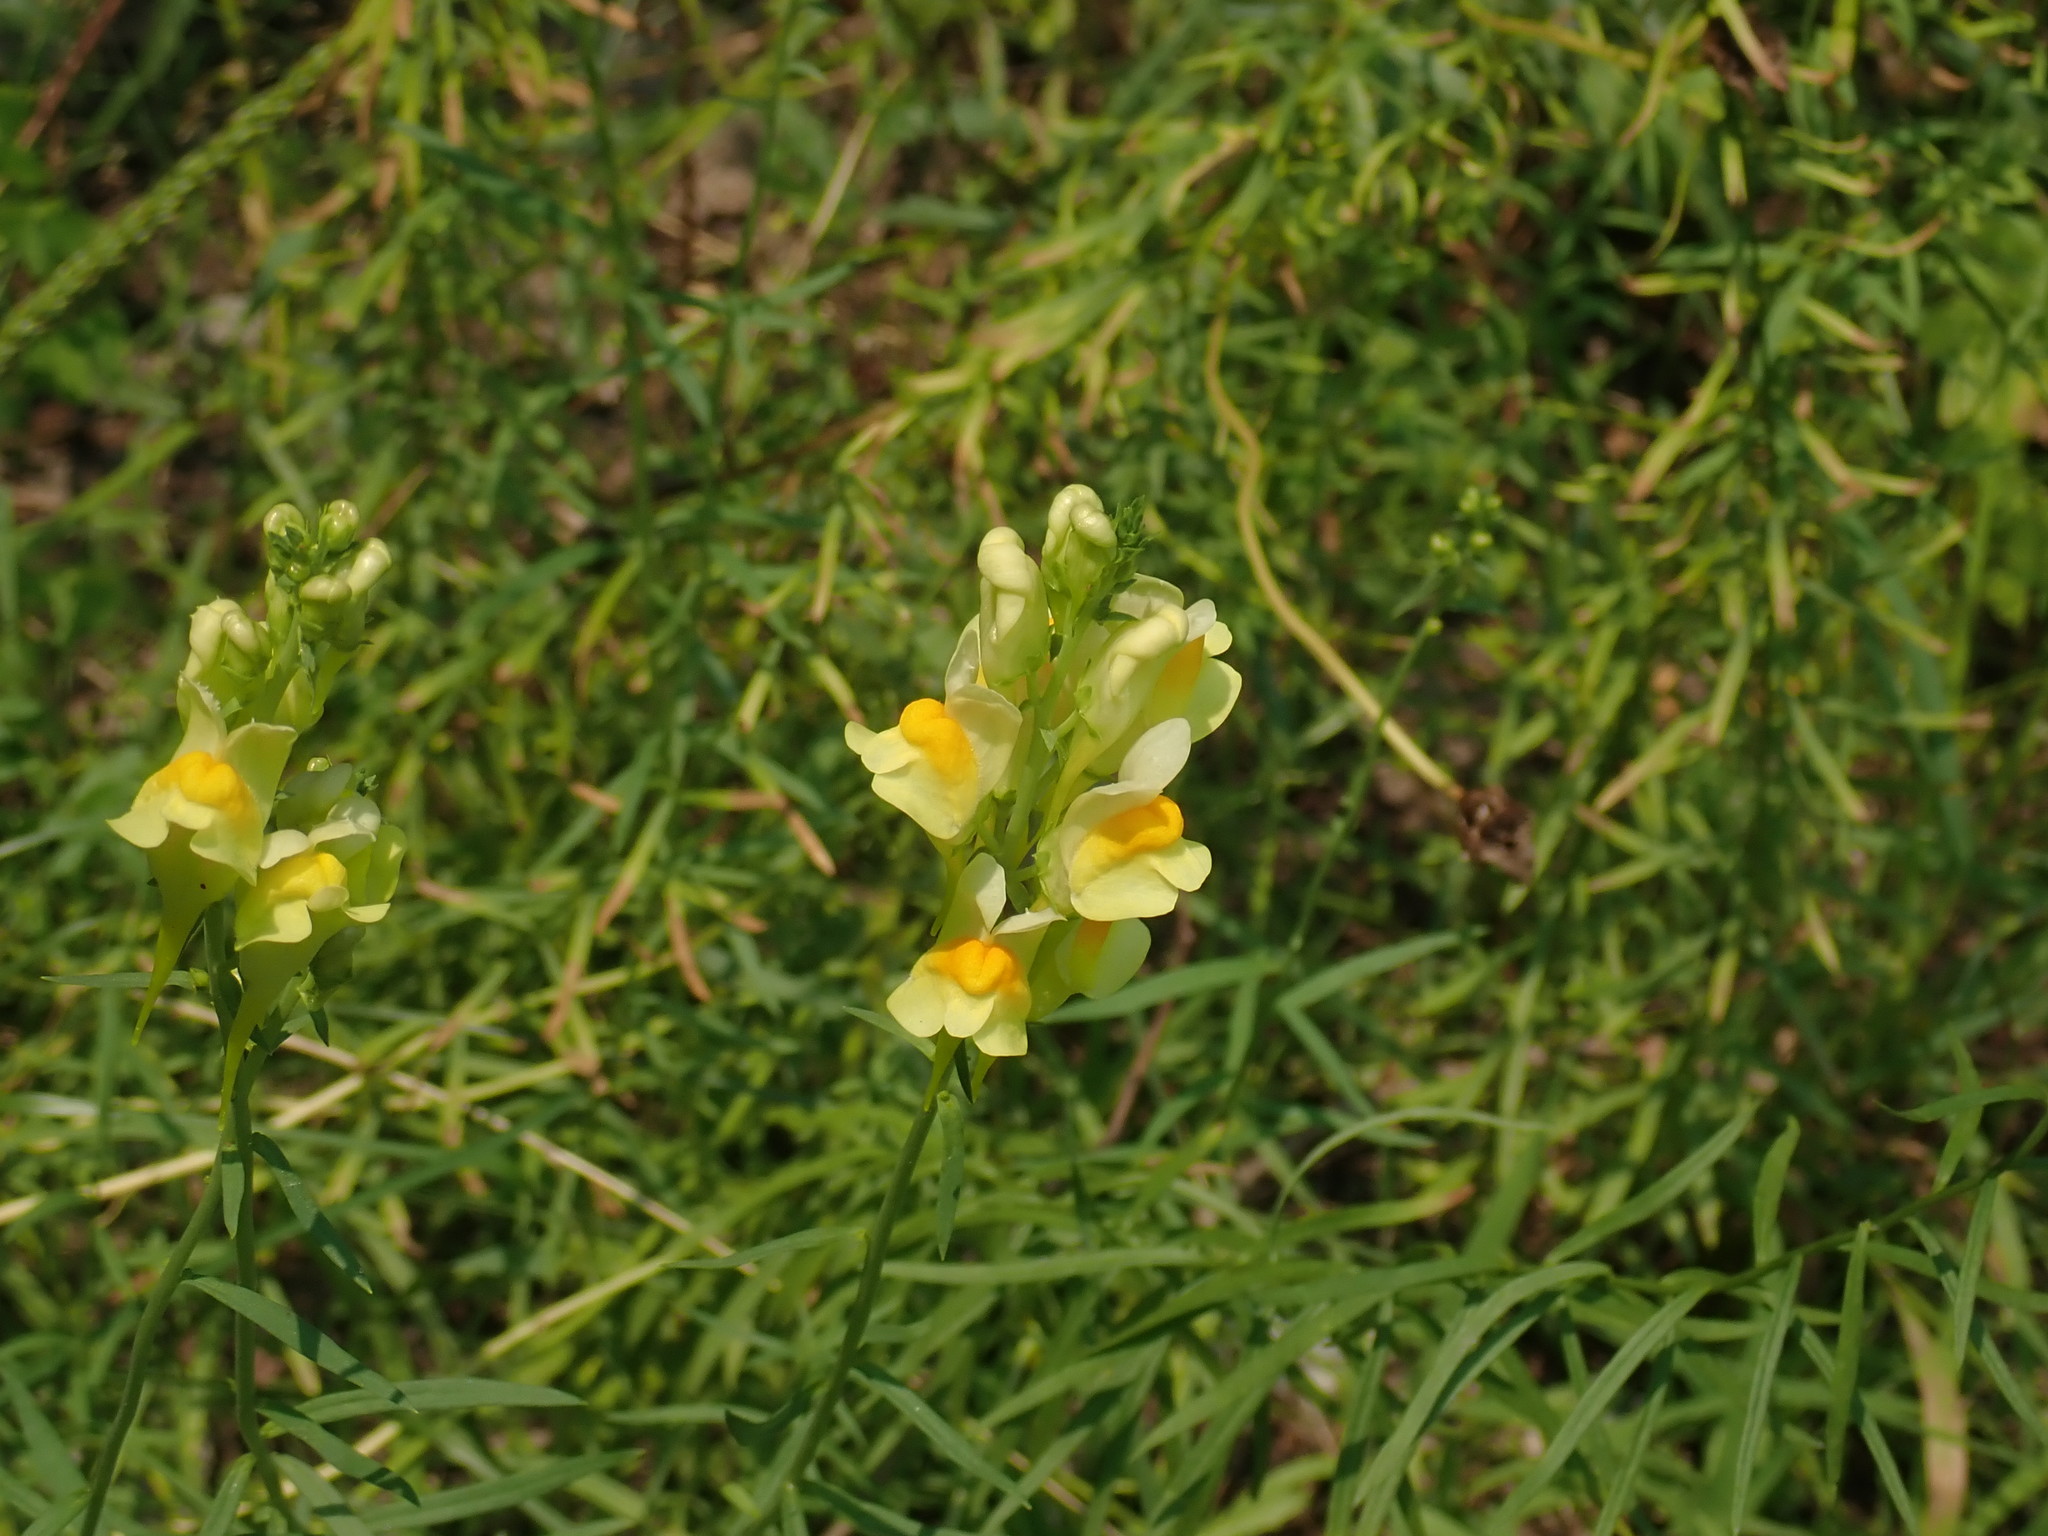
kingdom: Plantae
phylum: Tracheophyta
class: Magnoliopsida
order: Lamiales
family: Plantaginaceae
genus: Linaria
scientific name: Linaria vulgaris
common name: Butter and eggs
